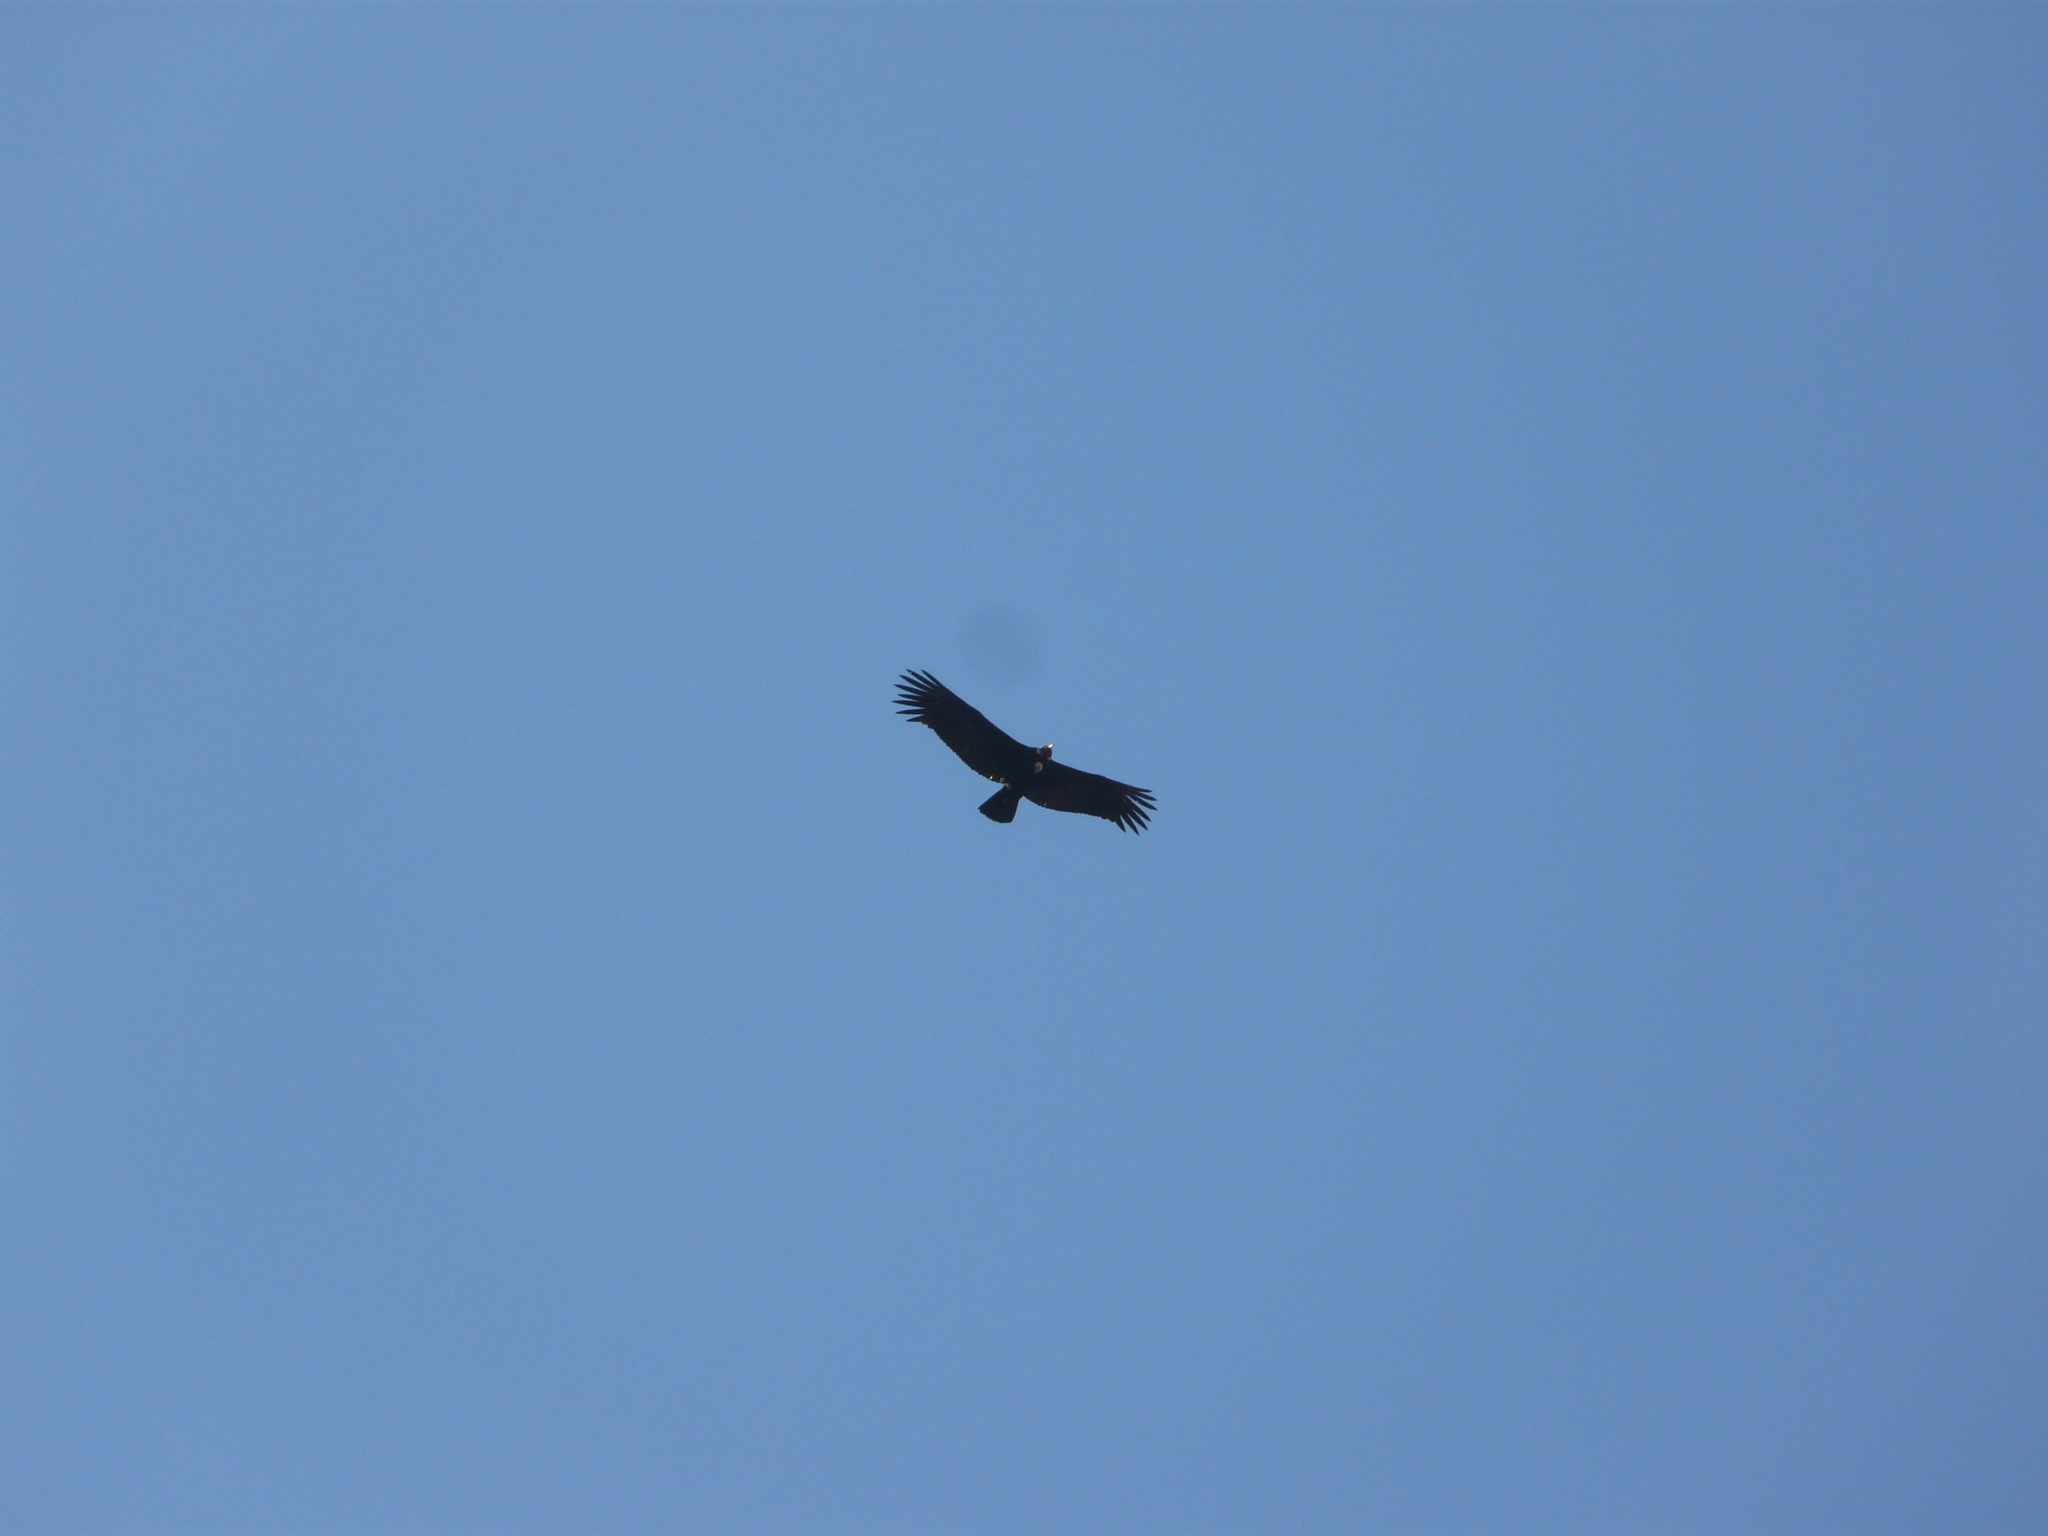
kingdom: Animalia
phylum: Chordata
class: Aves
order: Accipitriformes
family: Cathartidae
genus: Vultur
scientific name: Vultur gryphus
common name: Andean condor
